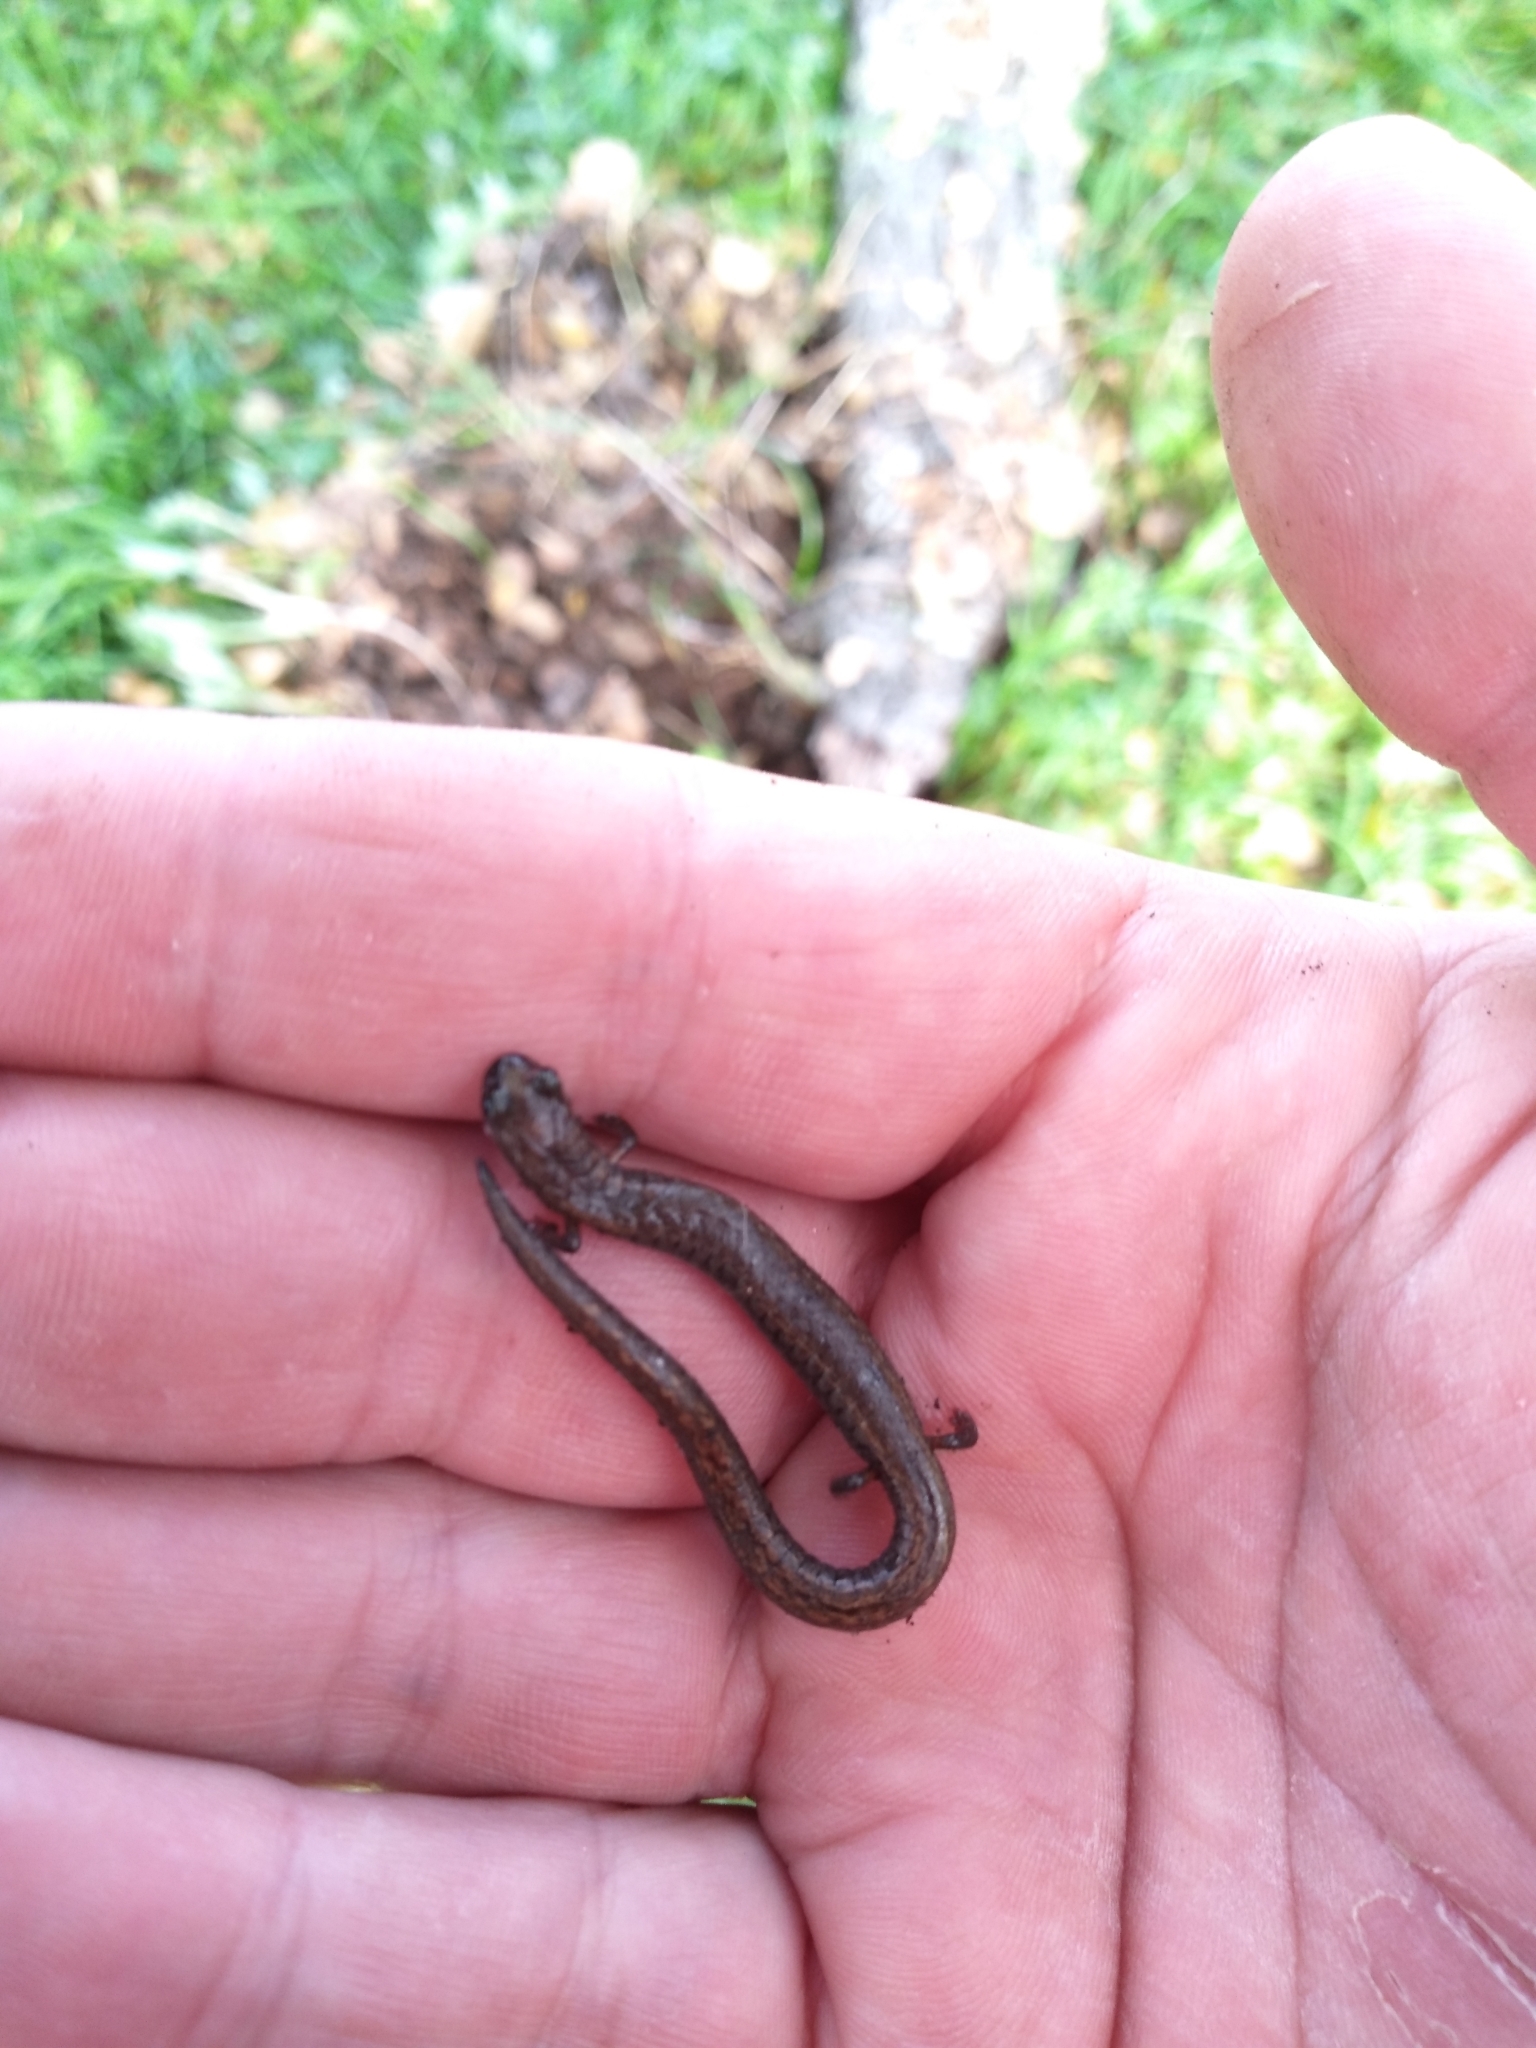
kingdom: Animalia
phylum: Chordata
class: Amphibia
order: Caudata
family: Plethodontidae
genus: Batrachoseps
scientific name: Batrachoseps attenuatus
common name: California slender salamander
